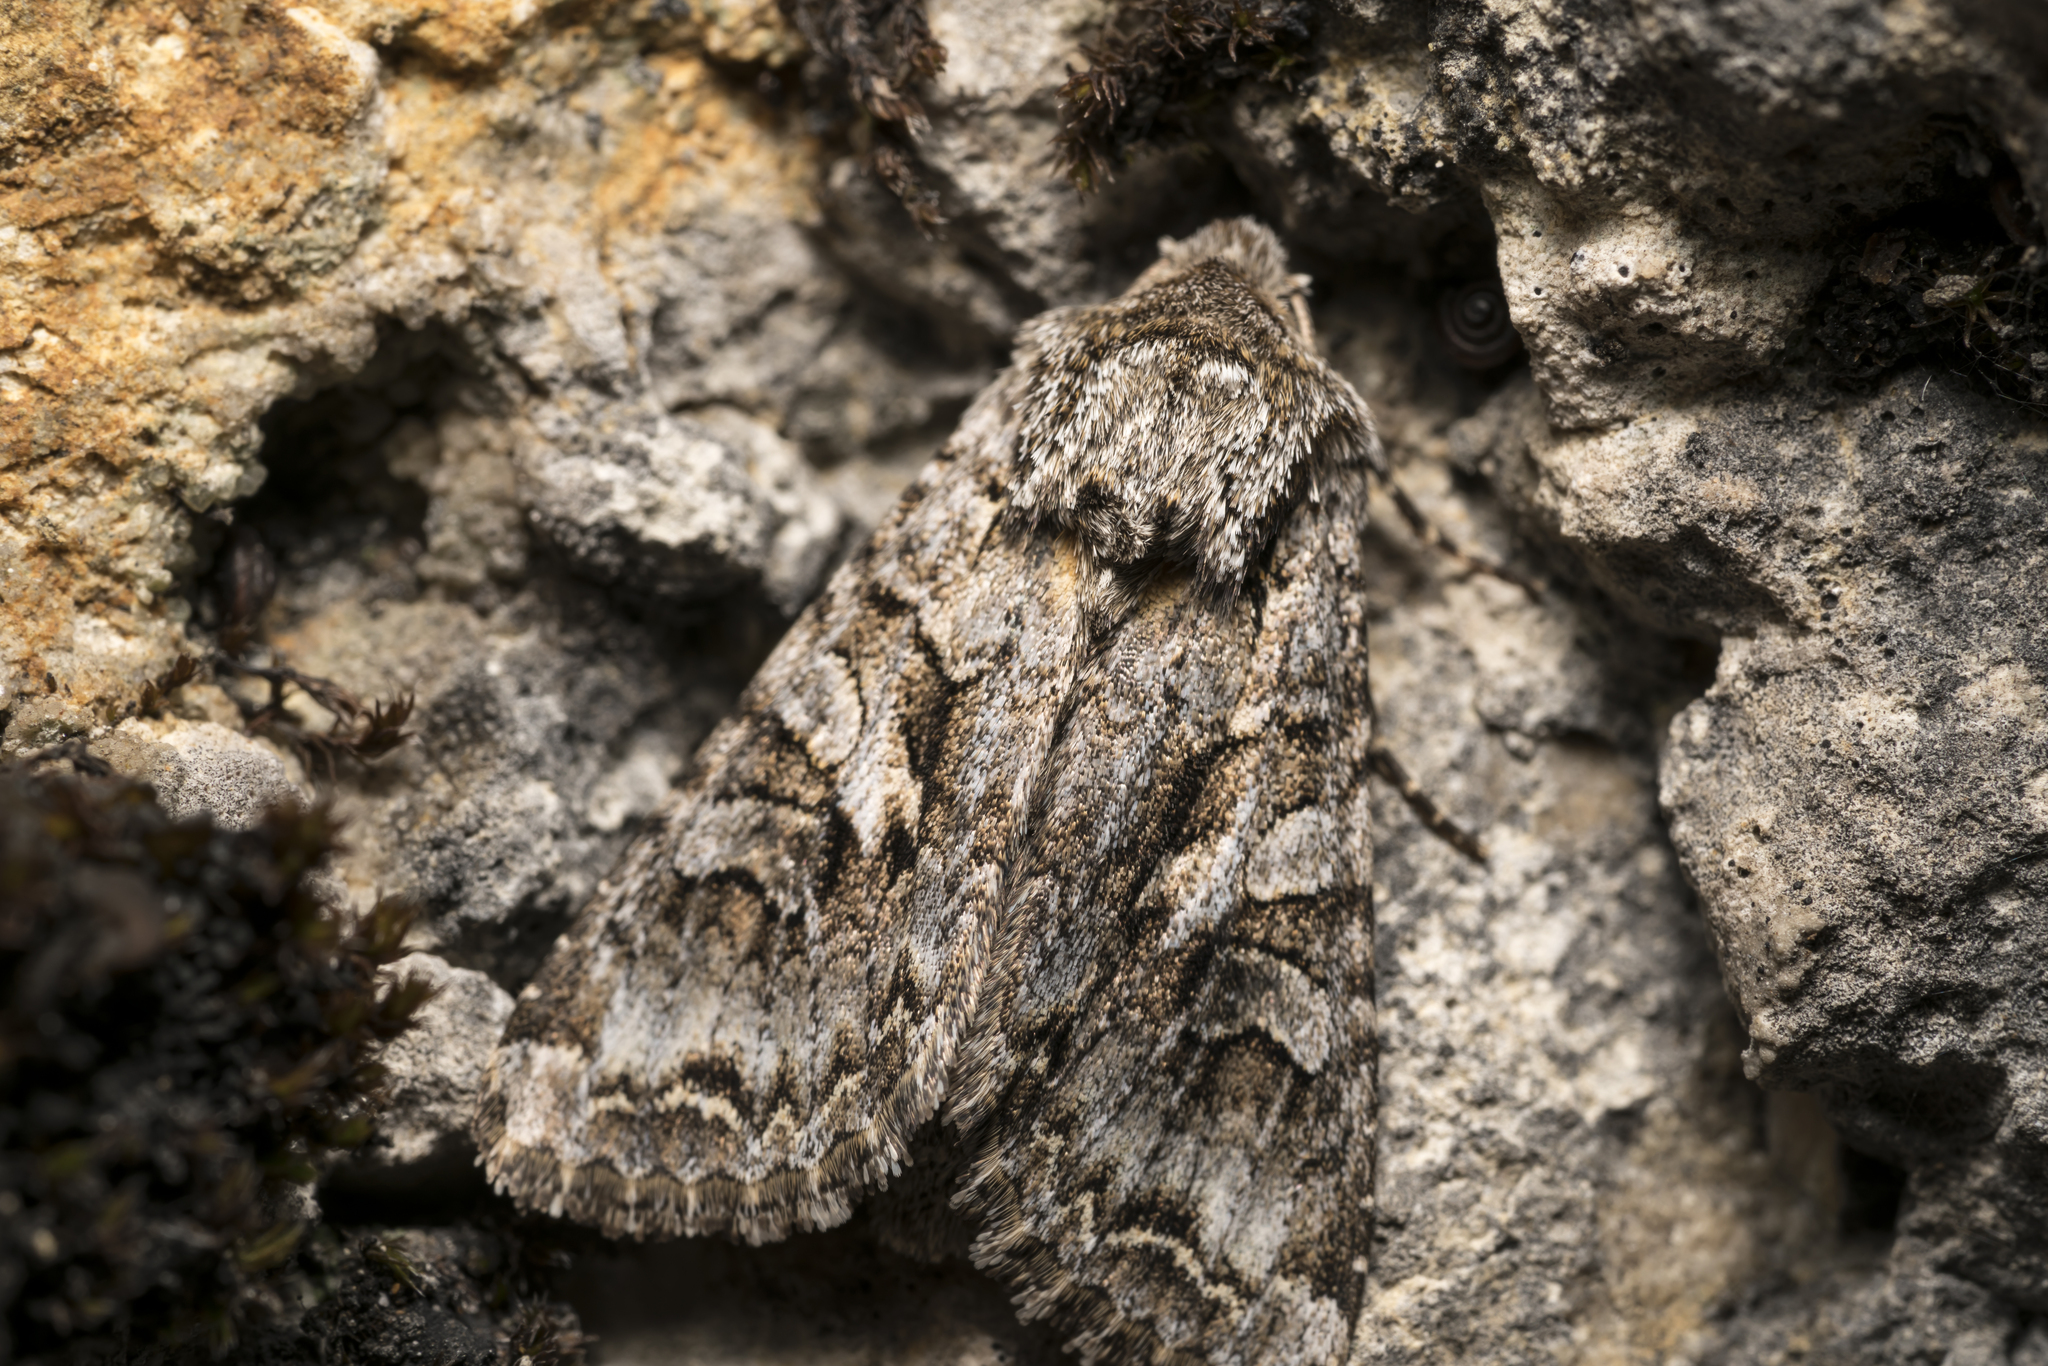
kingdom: Animalia
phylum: Arthropoda
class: Insecta
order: Lepidoptera
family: Noctuidae
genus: Hada
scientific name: Hada plebeja
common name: Shears
